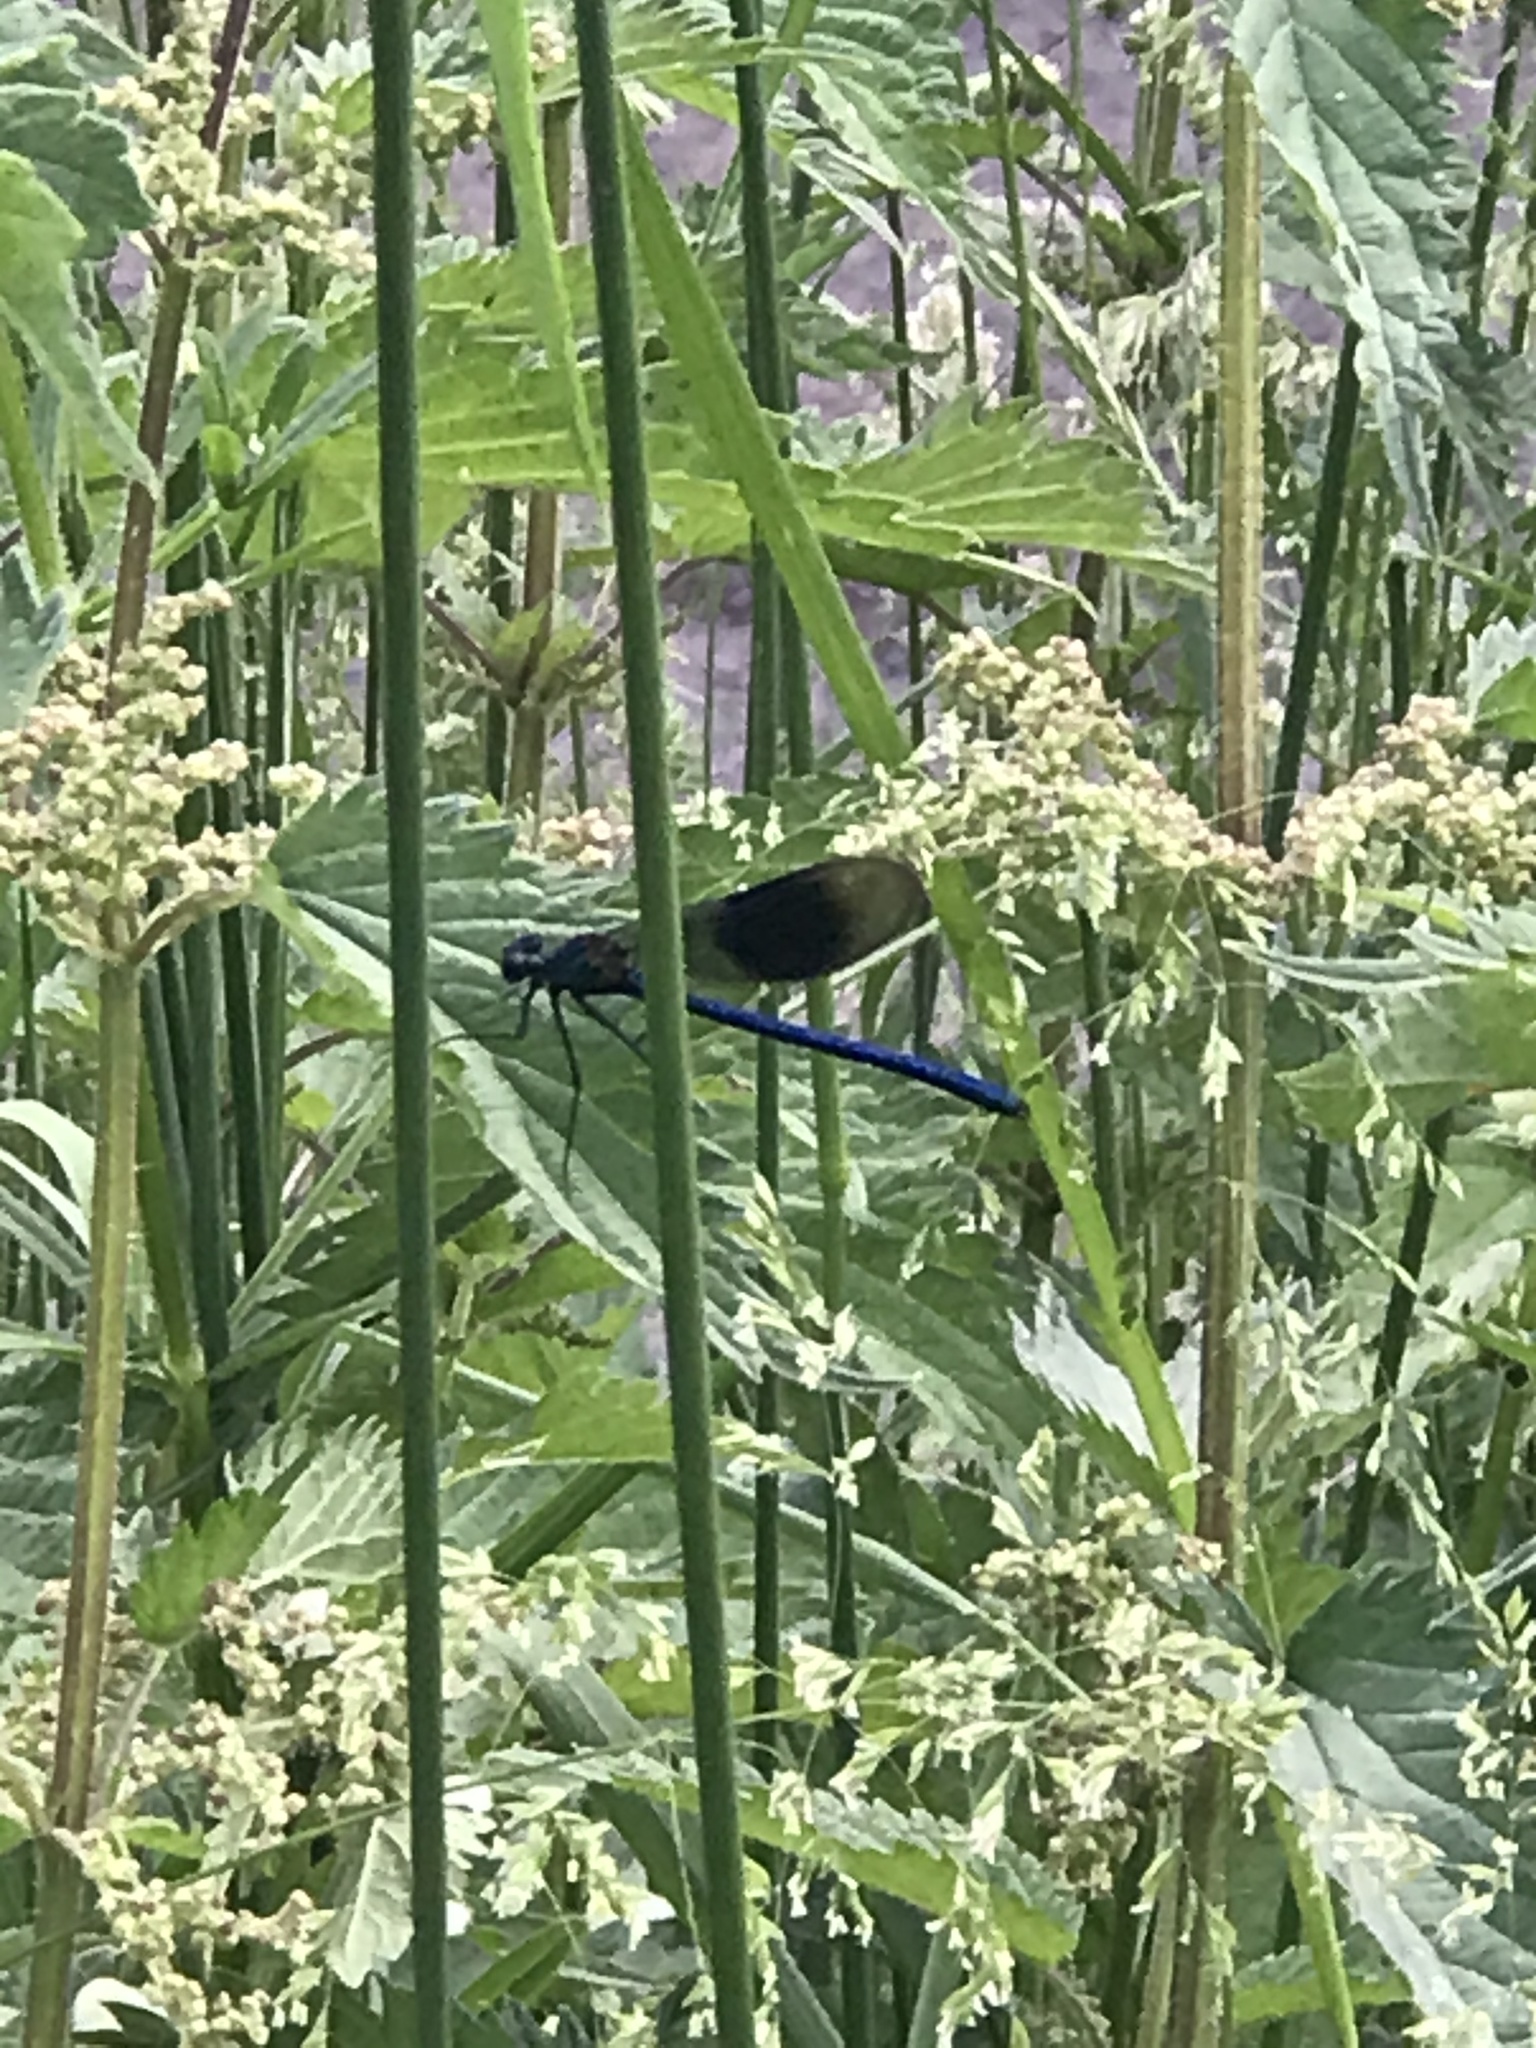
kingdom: Animalia
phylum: Arthropoda
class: Insecta
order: Odonata
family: Calopterygidae
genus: Calopteryx
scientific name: Calopteryx splendens
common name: Banded demoiselle
